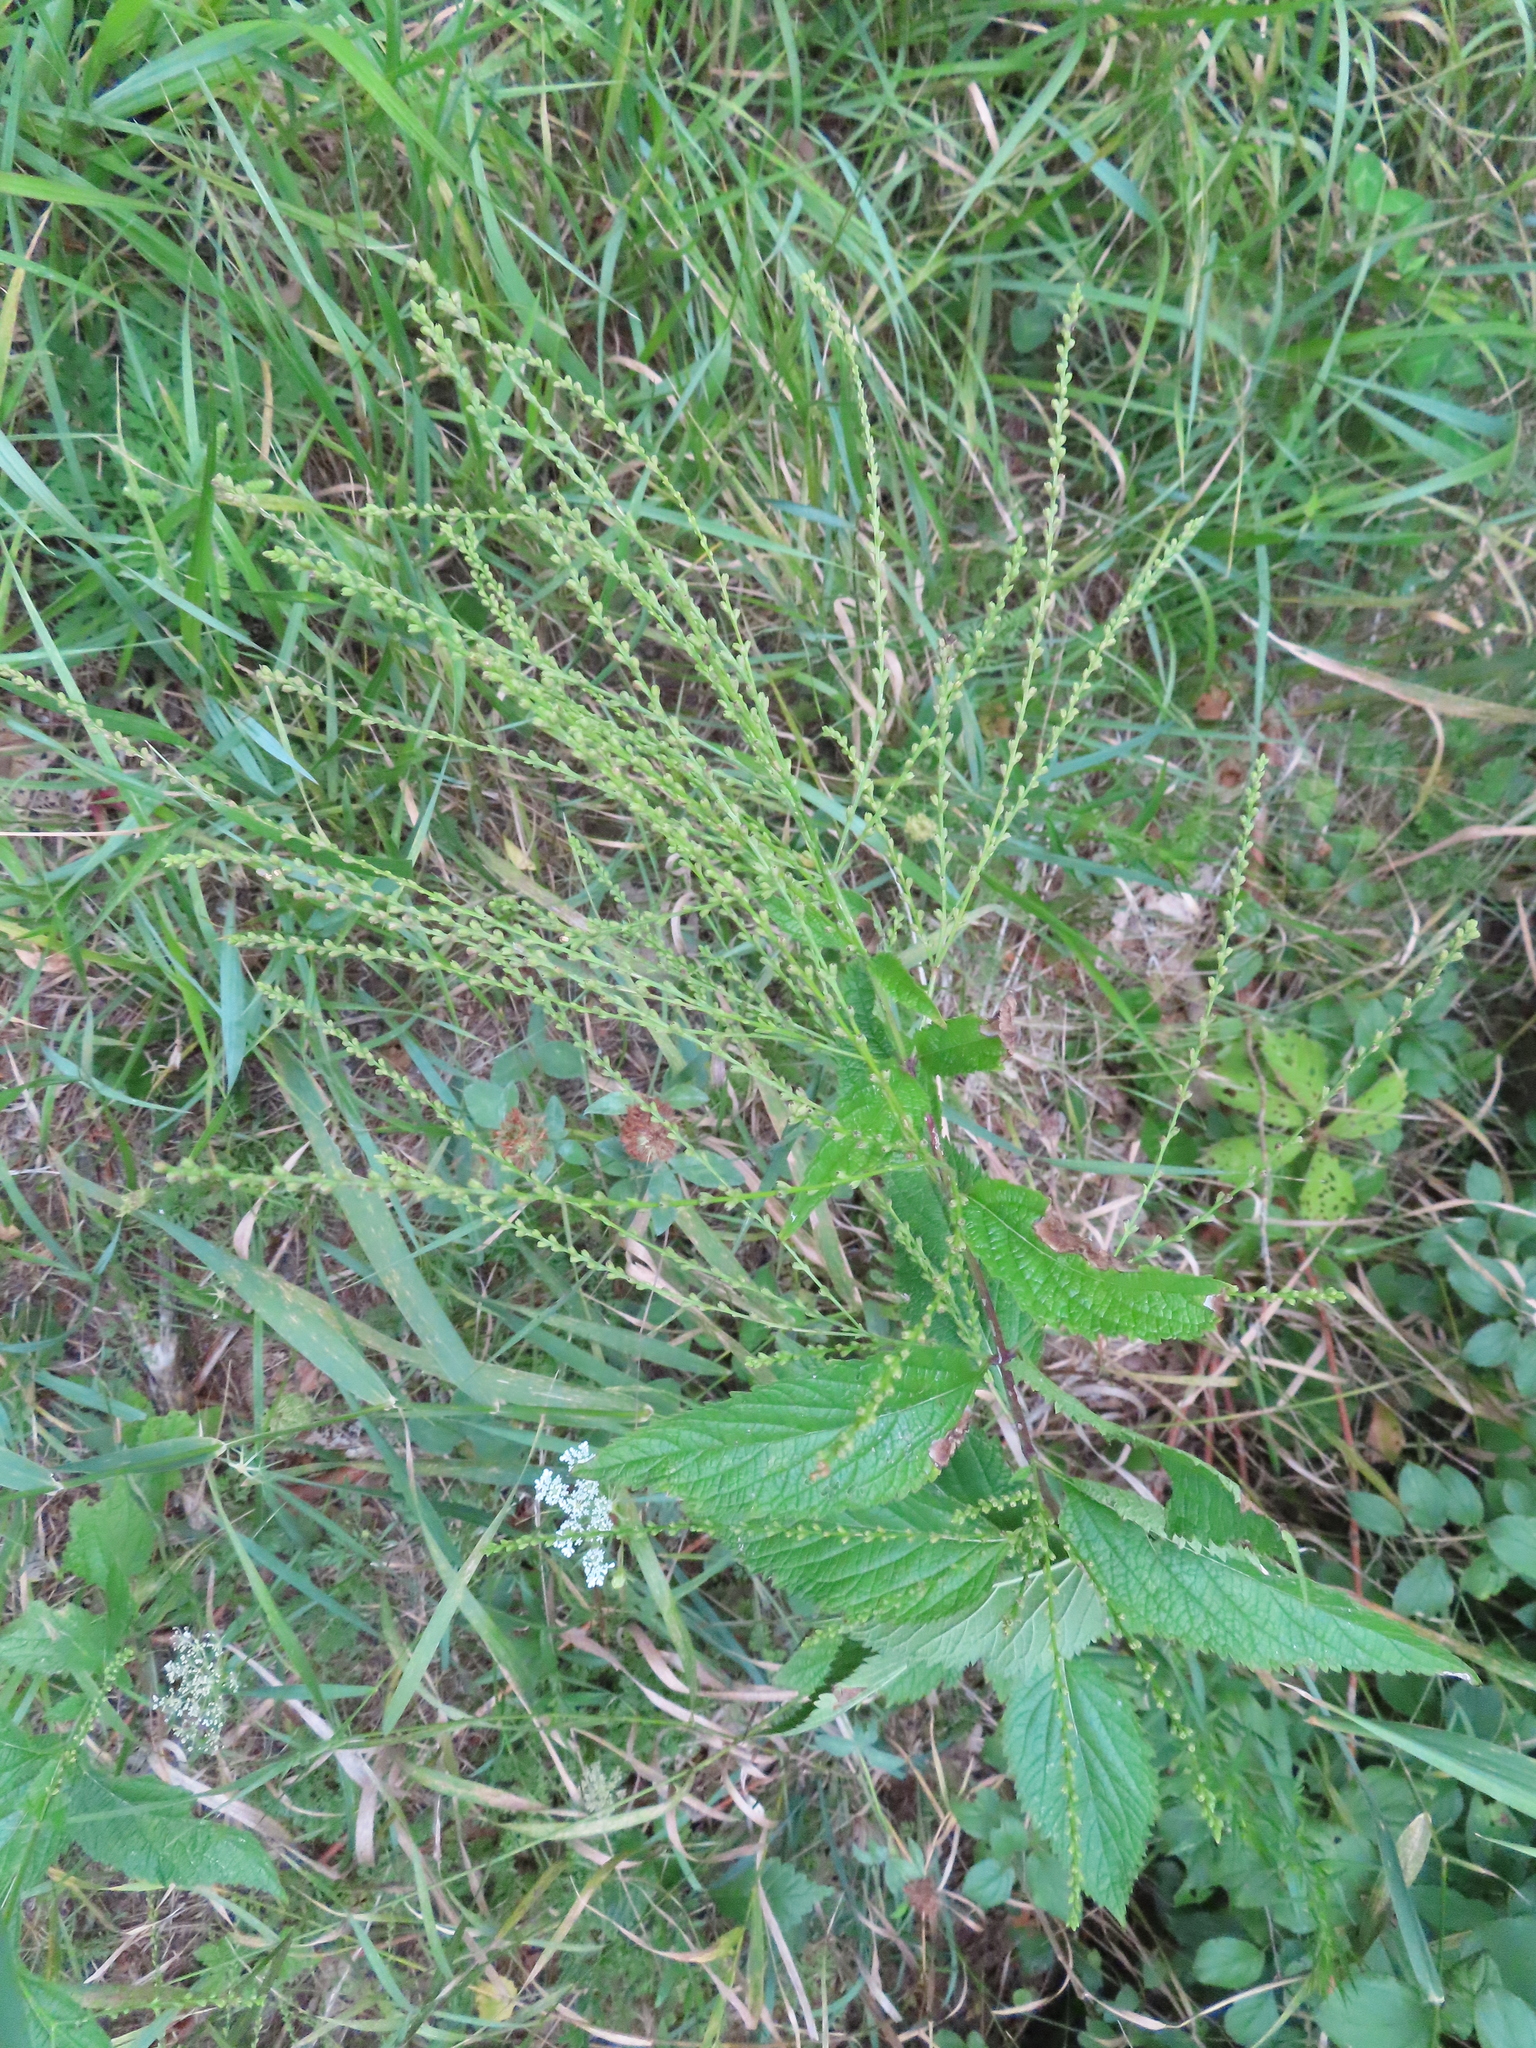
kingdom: Plantae
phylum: Tracheophyta
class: Magnoliopsida
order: Lamiales
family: Verbenaceae
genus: Verbena
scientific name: Verbena urticifolia
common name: Nettle-leaved vervain
